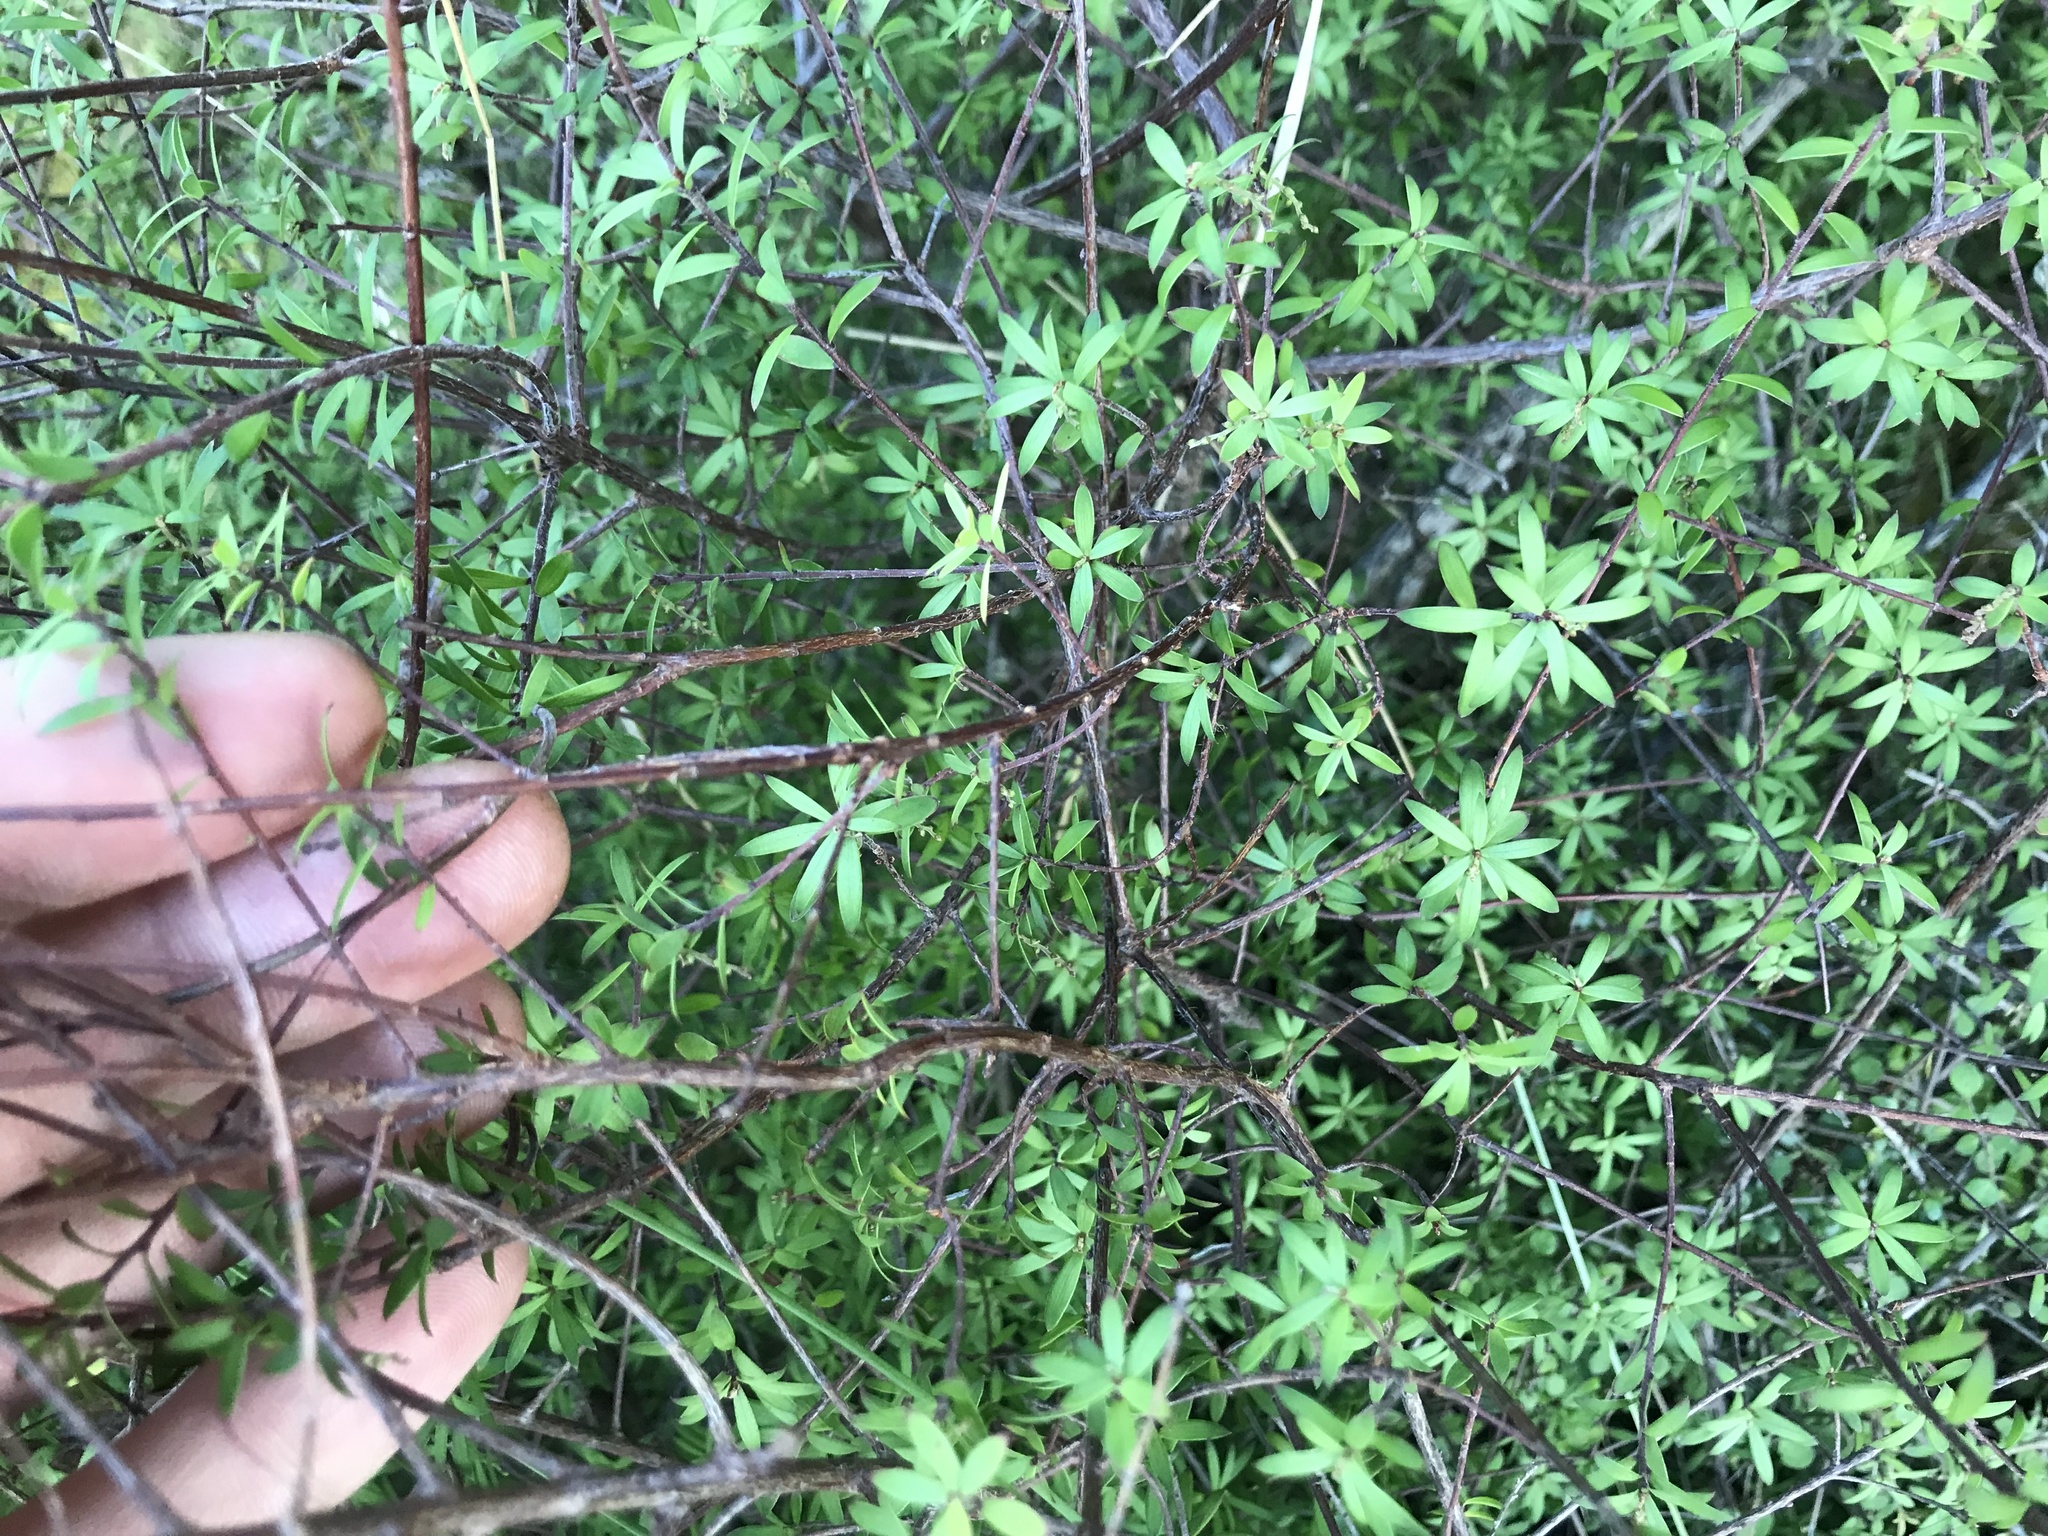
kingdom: Plantae
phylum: Tracheophyta
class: Magnoliopsida
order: Ericales
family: Ericaceae
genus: Leucopogon
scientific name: Leucopogon fasciculatus
